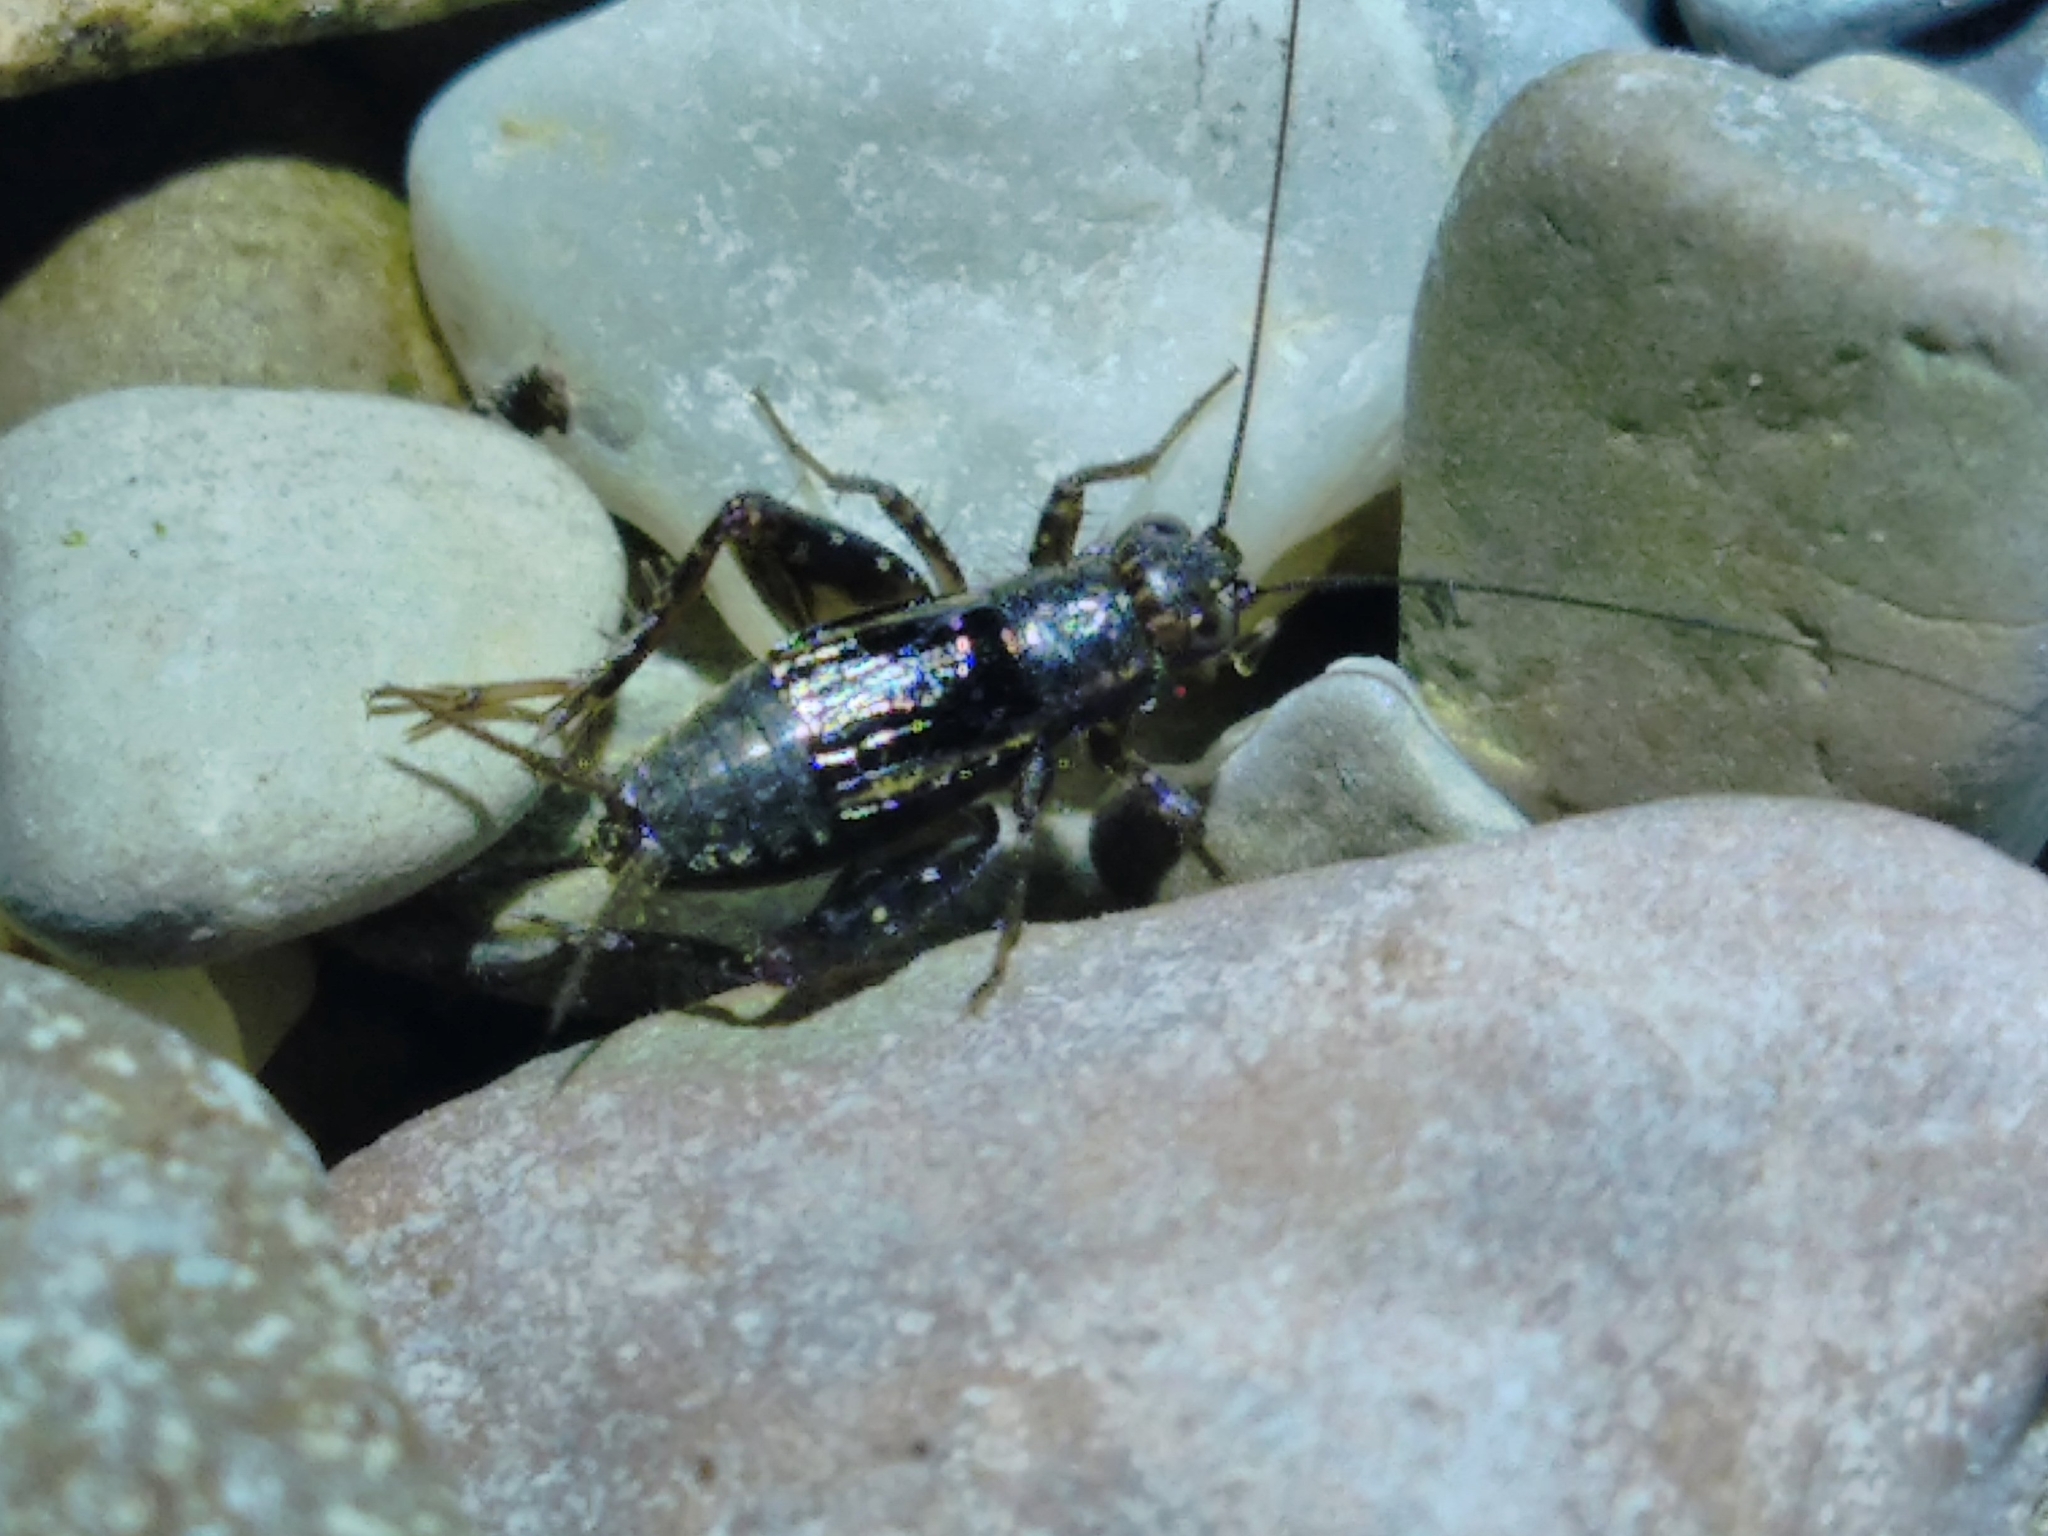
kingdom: Animalia
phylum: Arthropoda
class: Insecta
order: Orthoptera
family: Trigonidiidae
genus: Pteronemobius
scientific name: Pteronemobius heydenii
